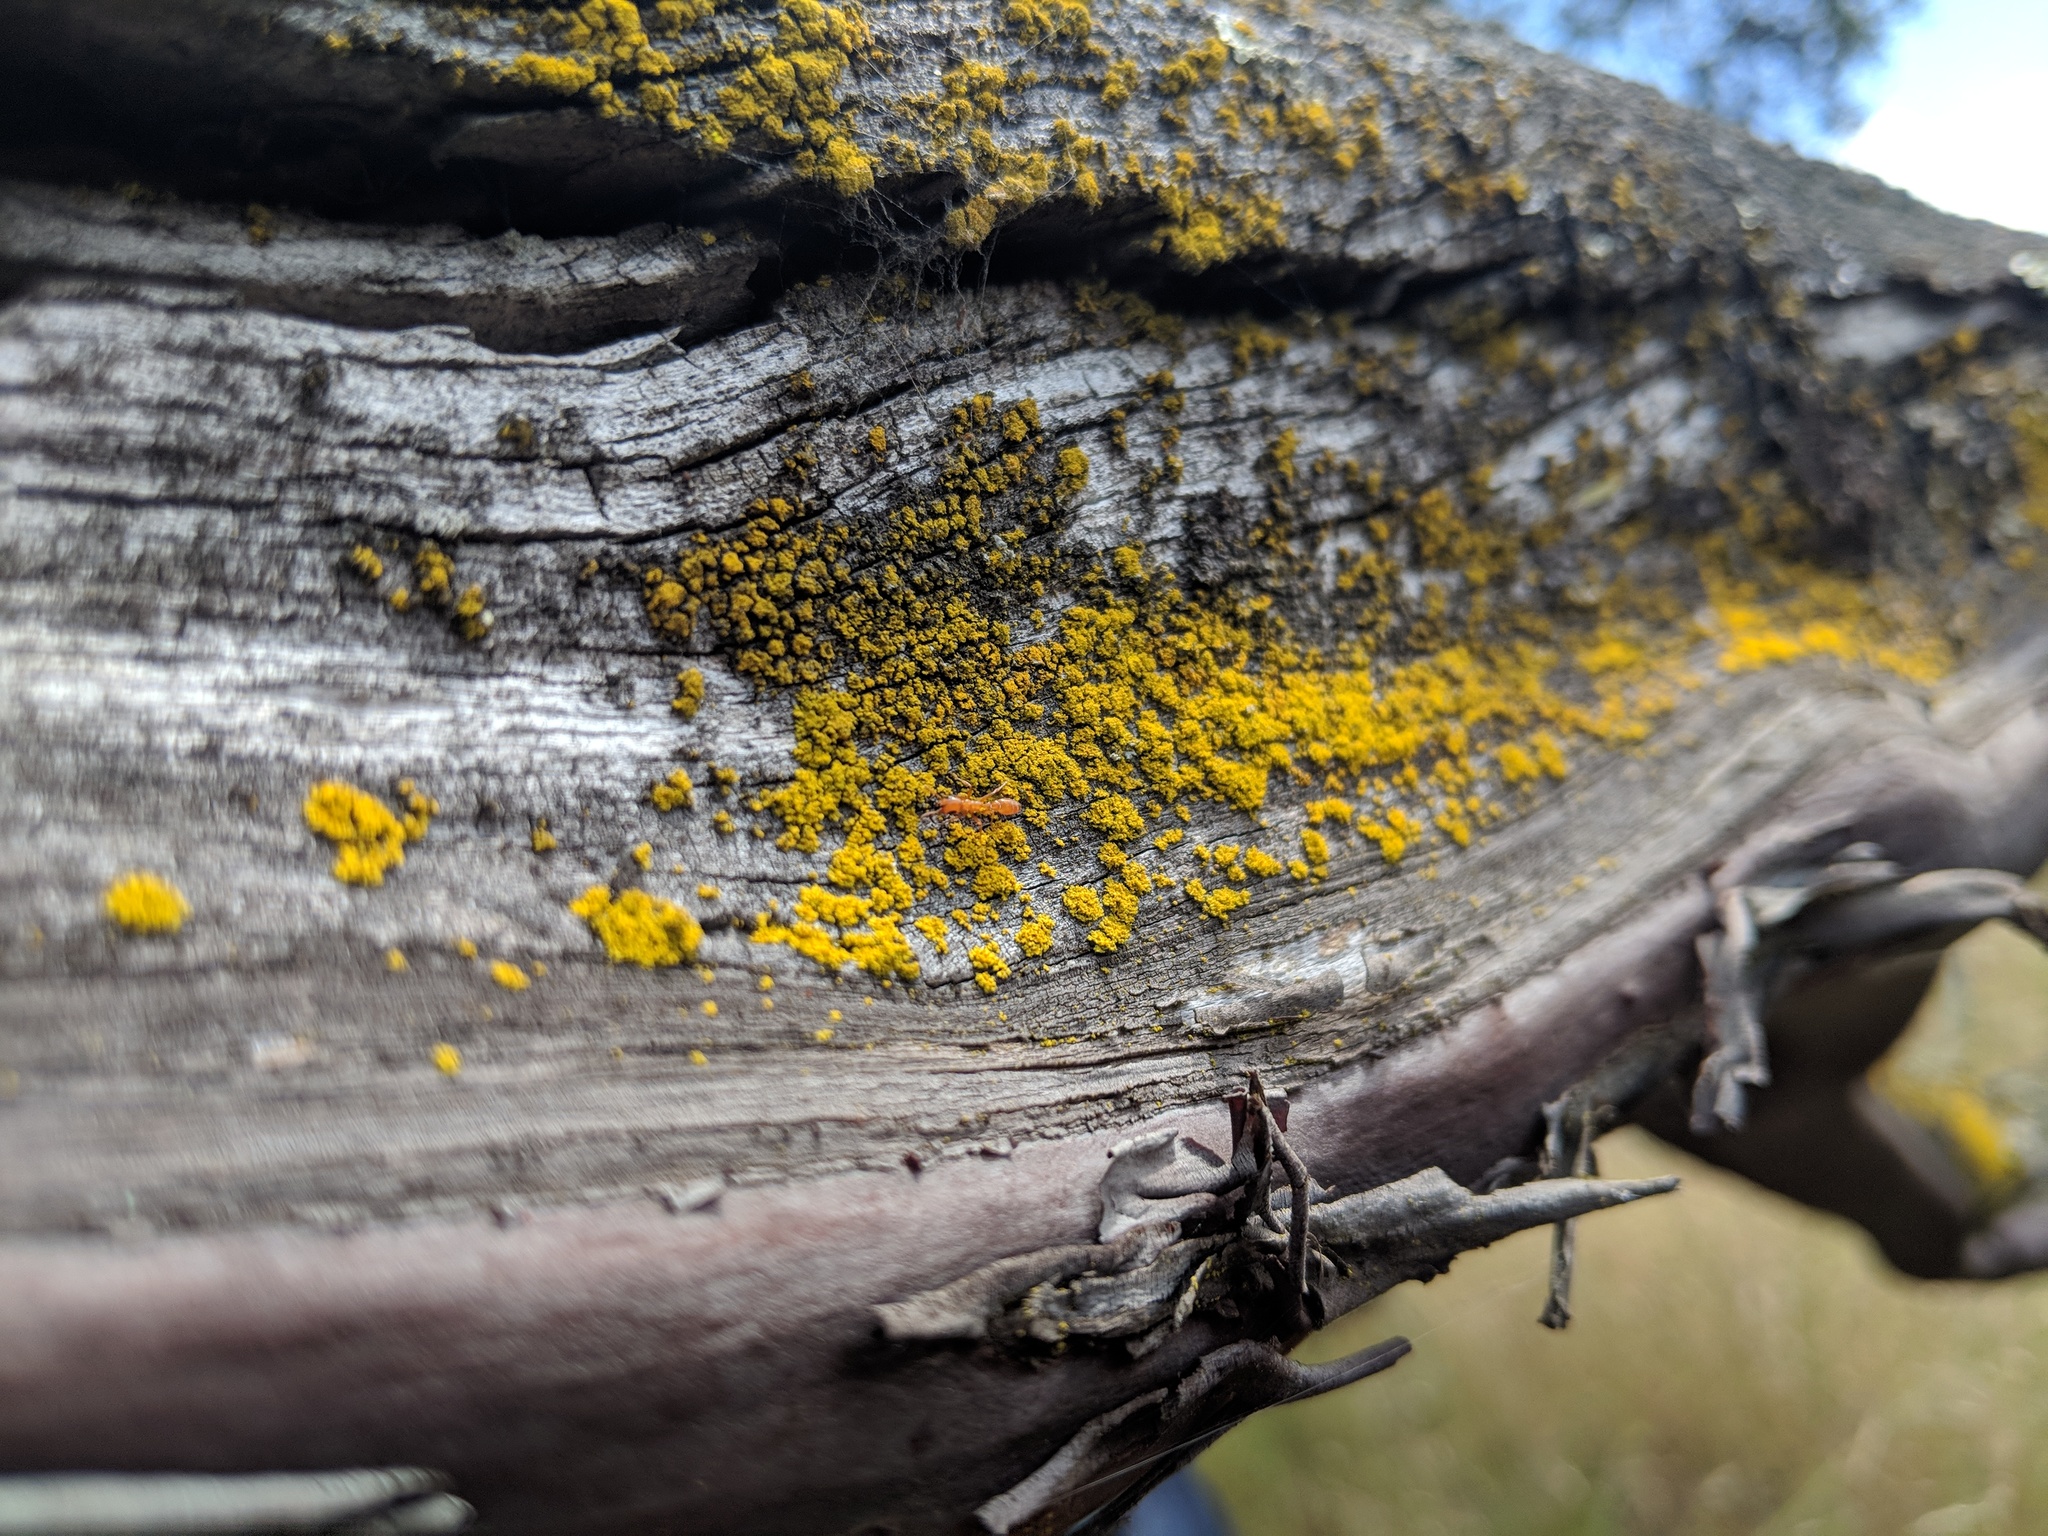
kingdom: Animalia
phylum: Arthropoda
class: Insecta
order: Hymenoptera
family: Formicidae
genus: Pseudomyrmex
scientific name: Pseudomyrmex apache
